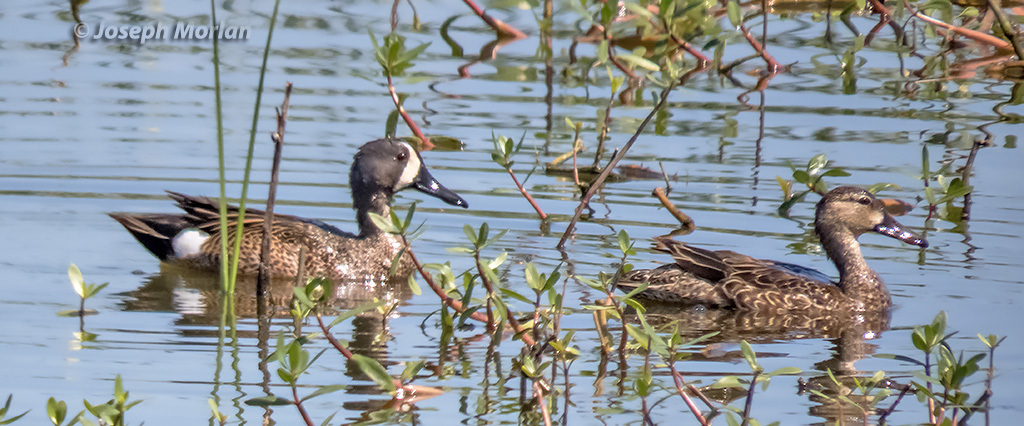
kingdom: Animalia
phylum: Chordata
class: Aves
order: Anseriformes
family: Anatidae
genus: Spatula
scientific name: Spatula discors
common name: Blue-winged teal
